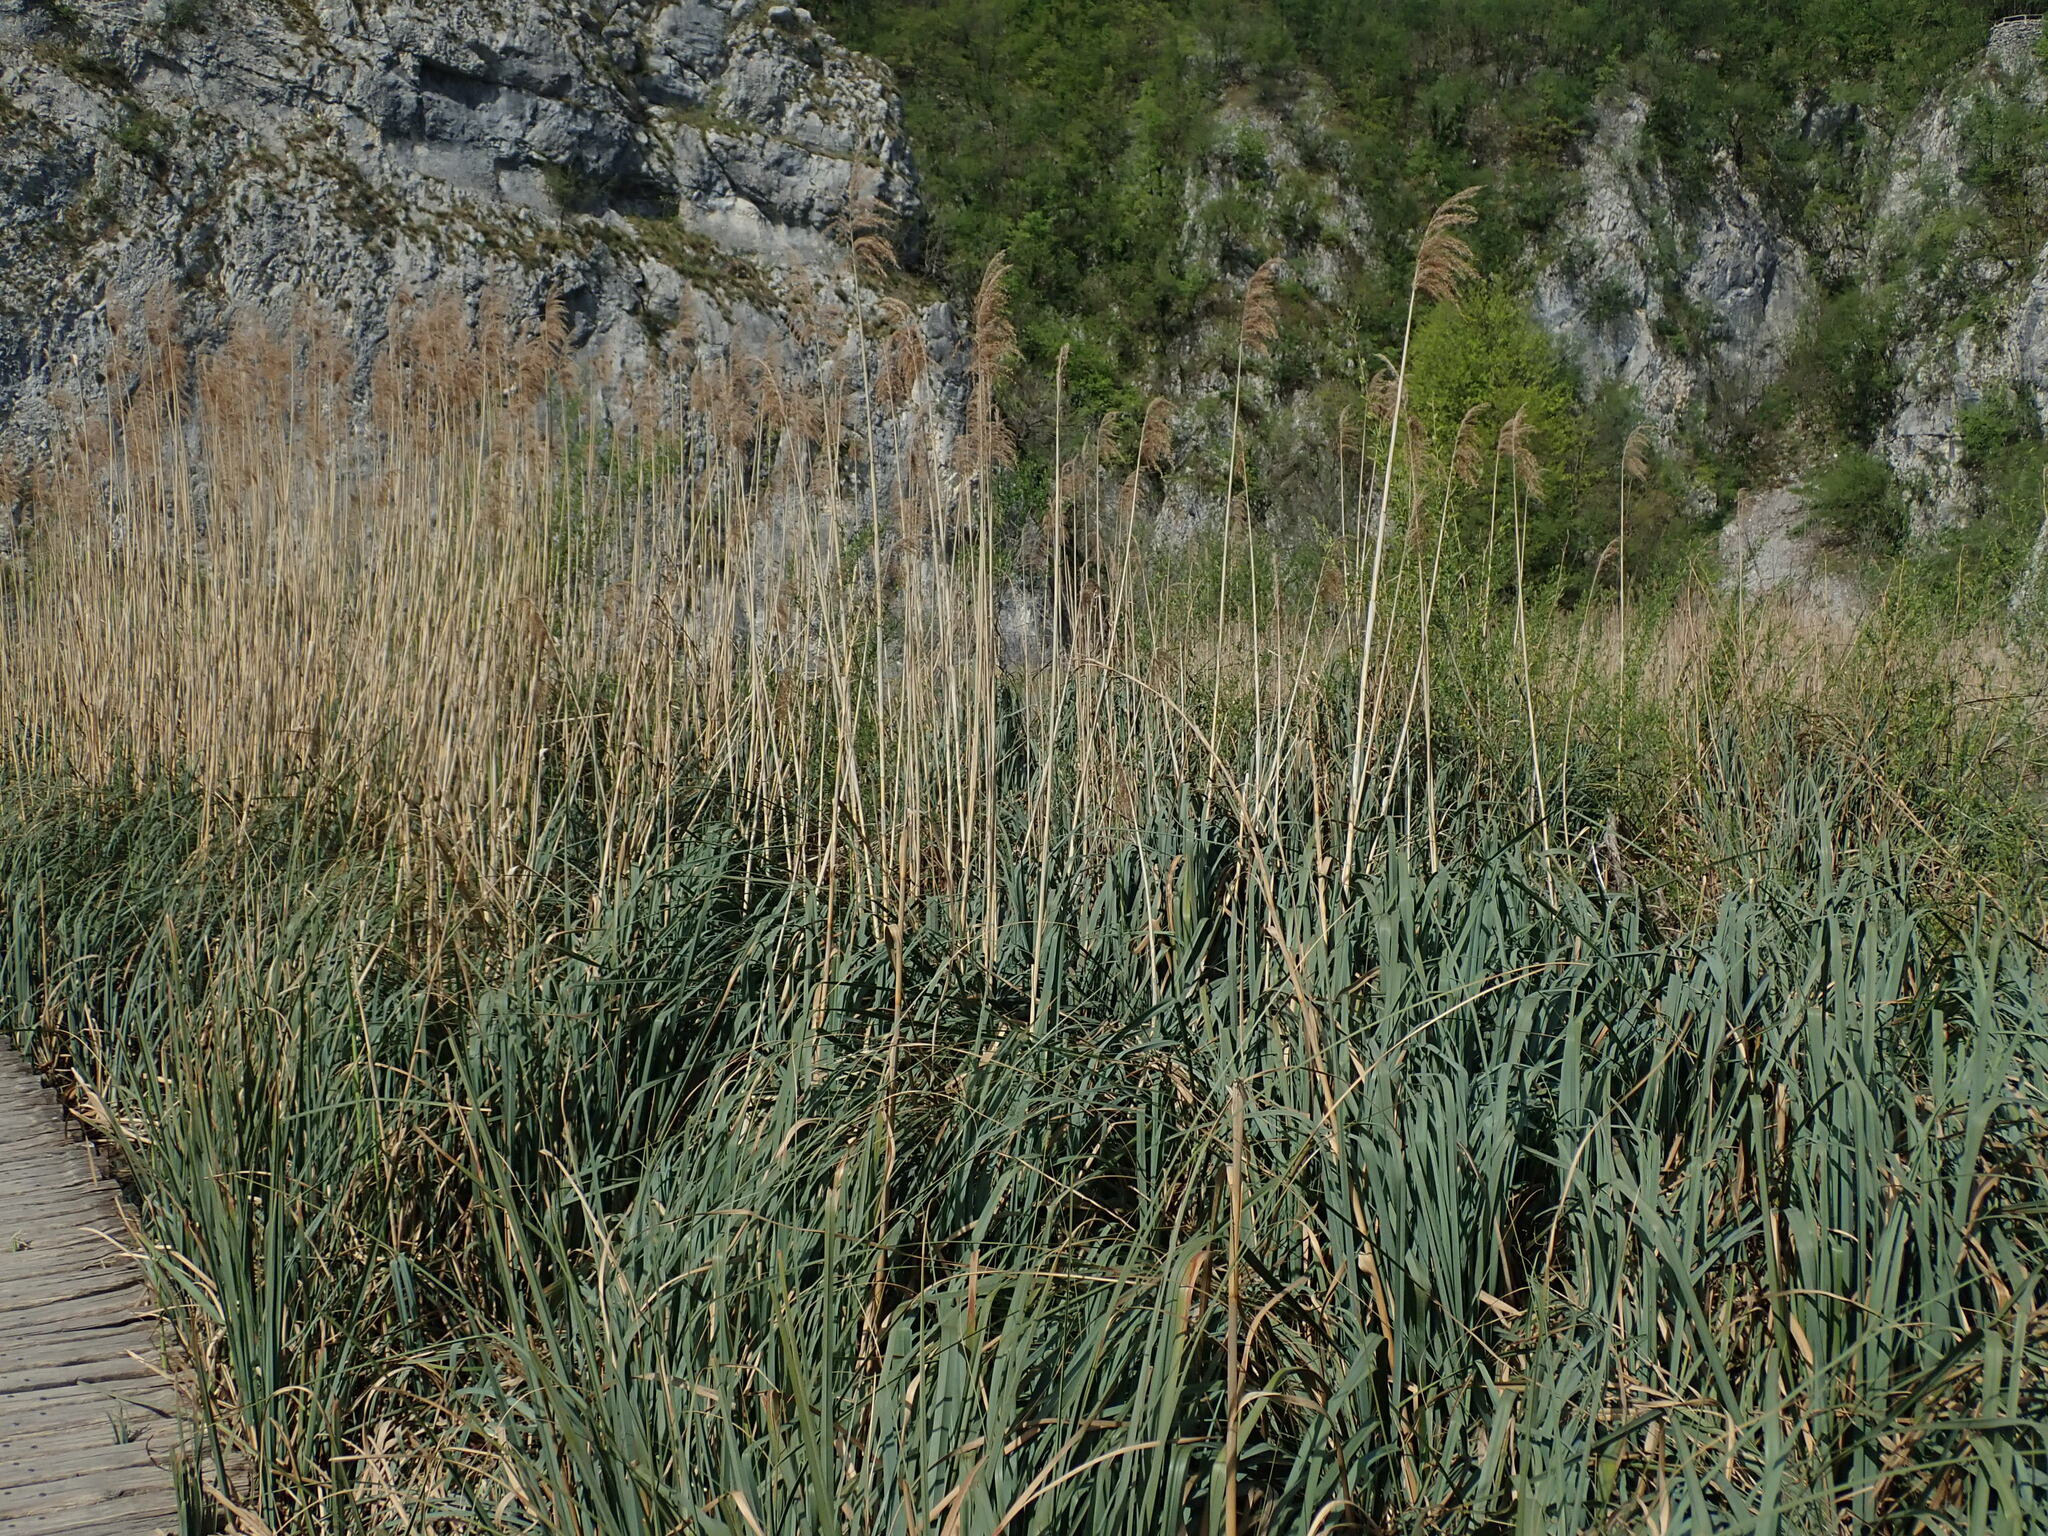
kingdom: Plantae
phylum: Tracheophyta
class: Liliopsida
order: Poales
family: Poaceae
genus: Phragmites
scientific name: Phragmites australis
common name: Common reed
